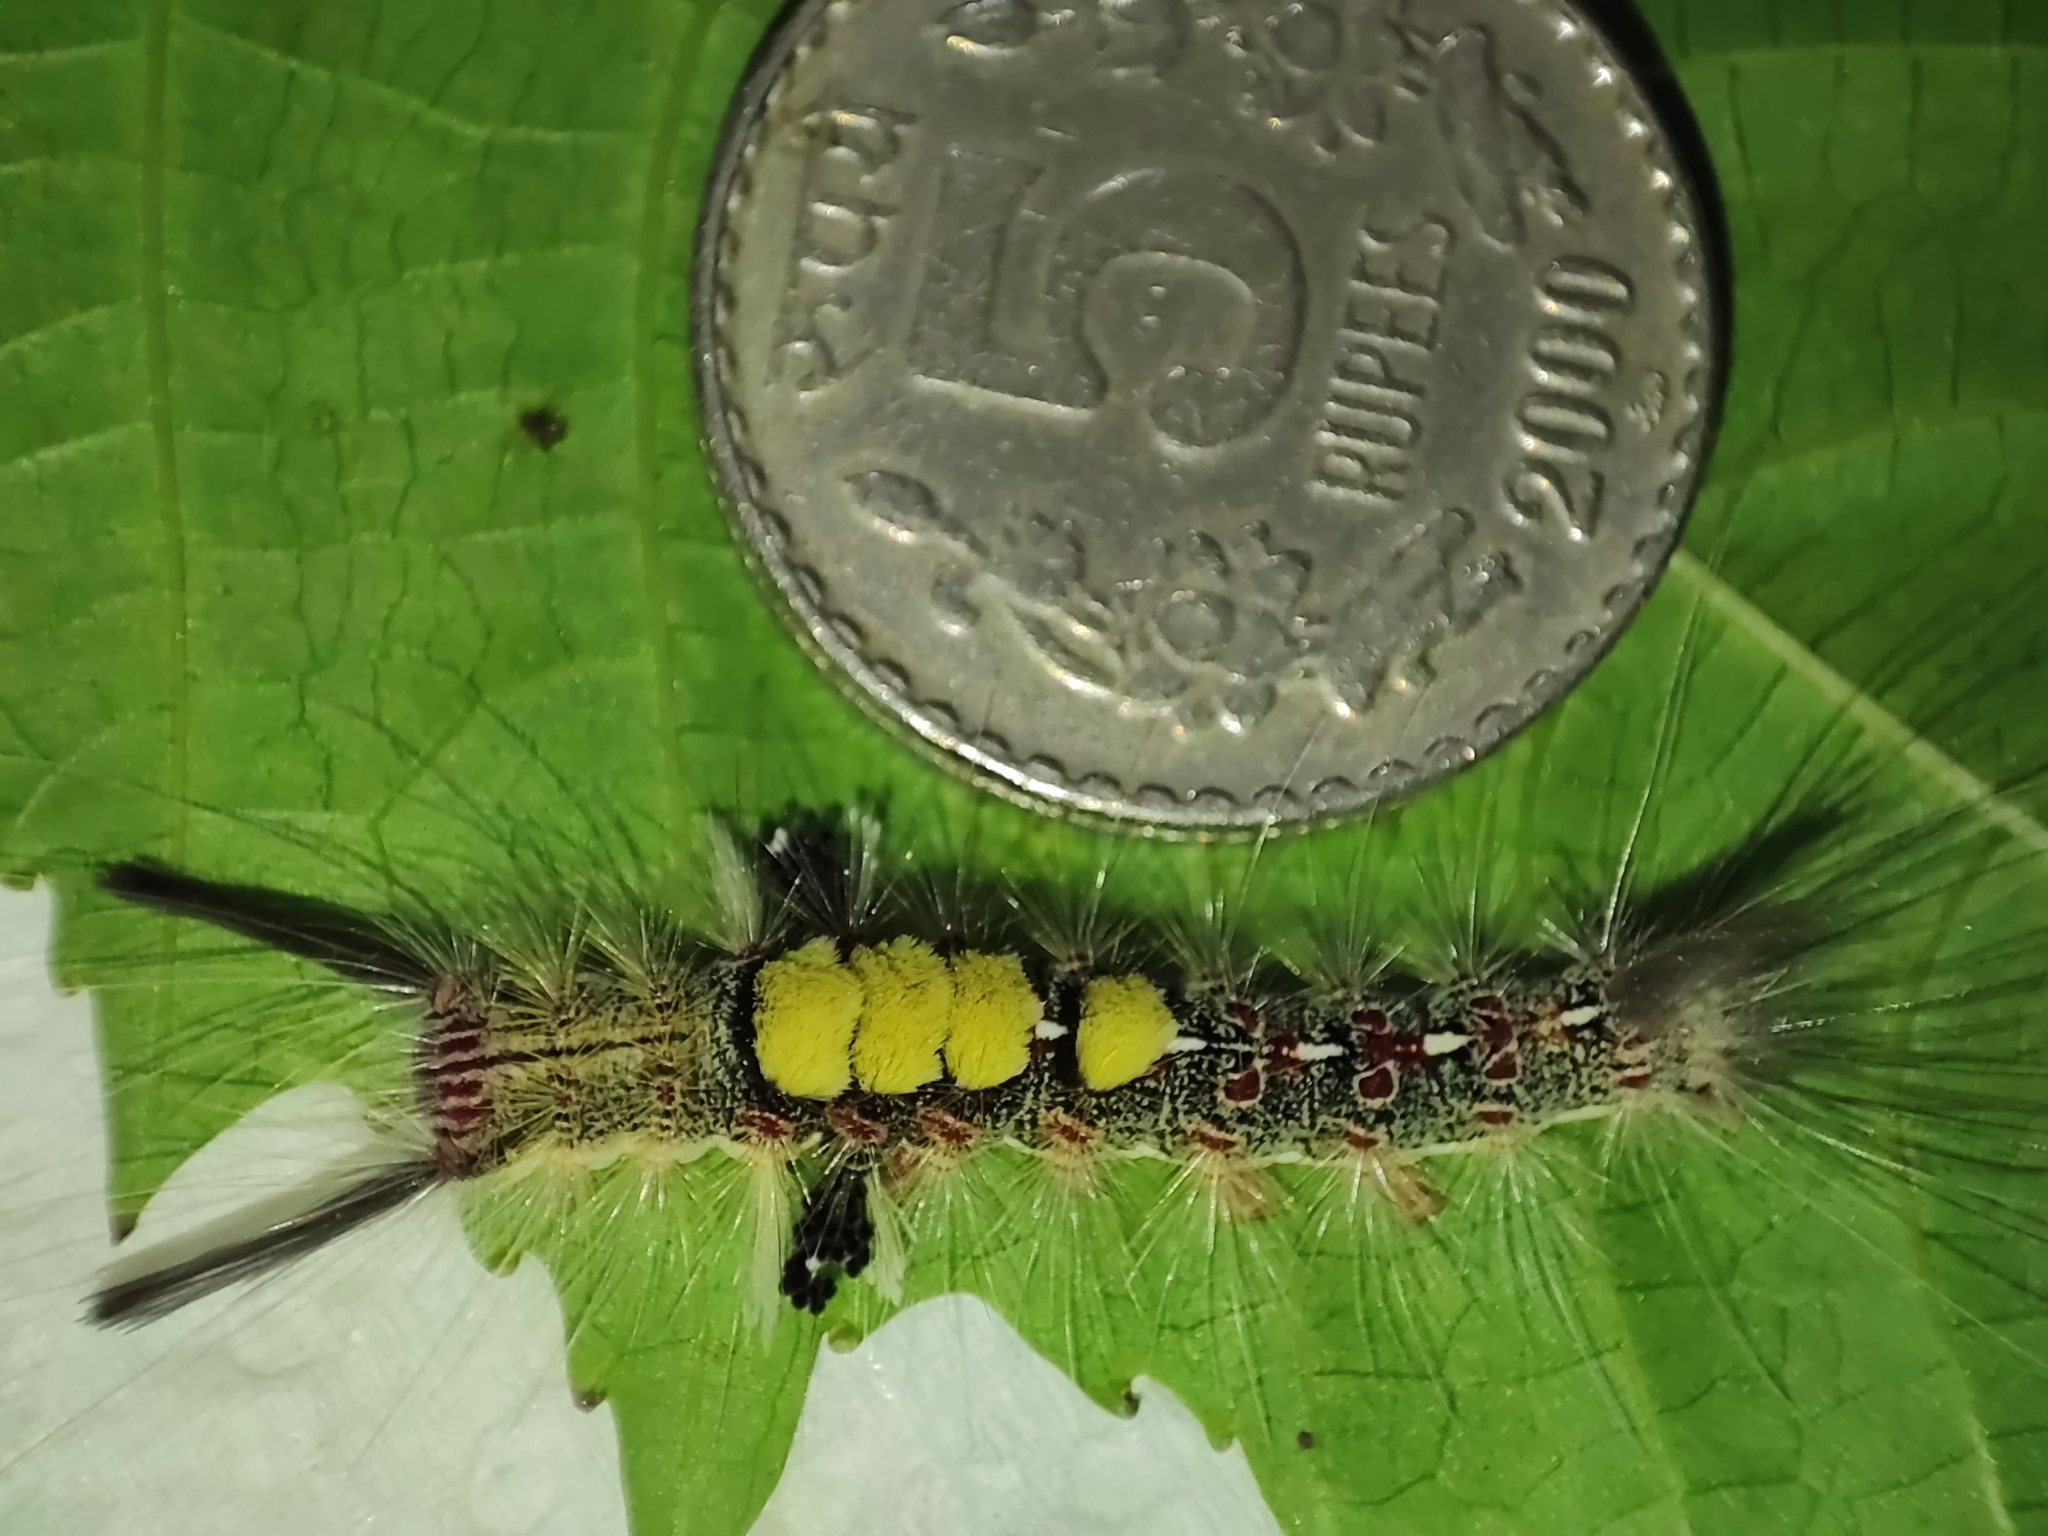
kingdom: Animalia
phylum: Arthropoda
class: Insecta
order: Lepidoptera
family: Erebidae
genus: Olene
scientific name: Olene mendosa
